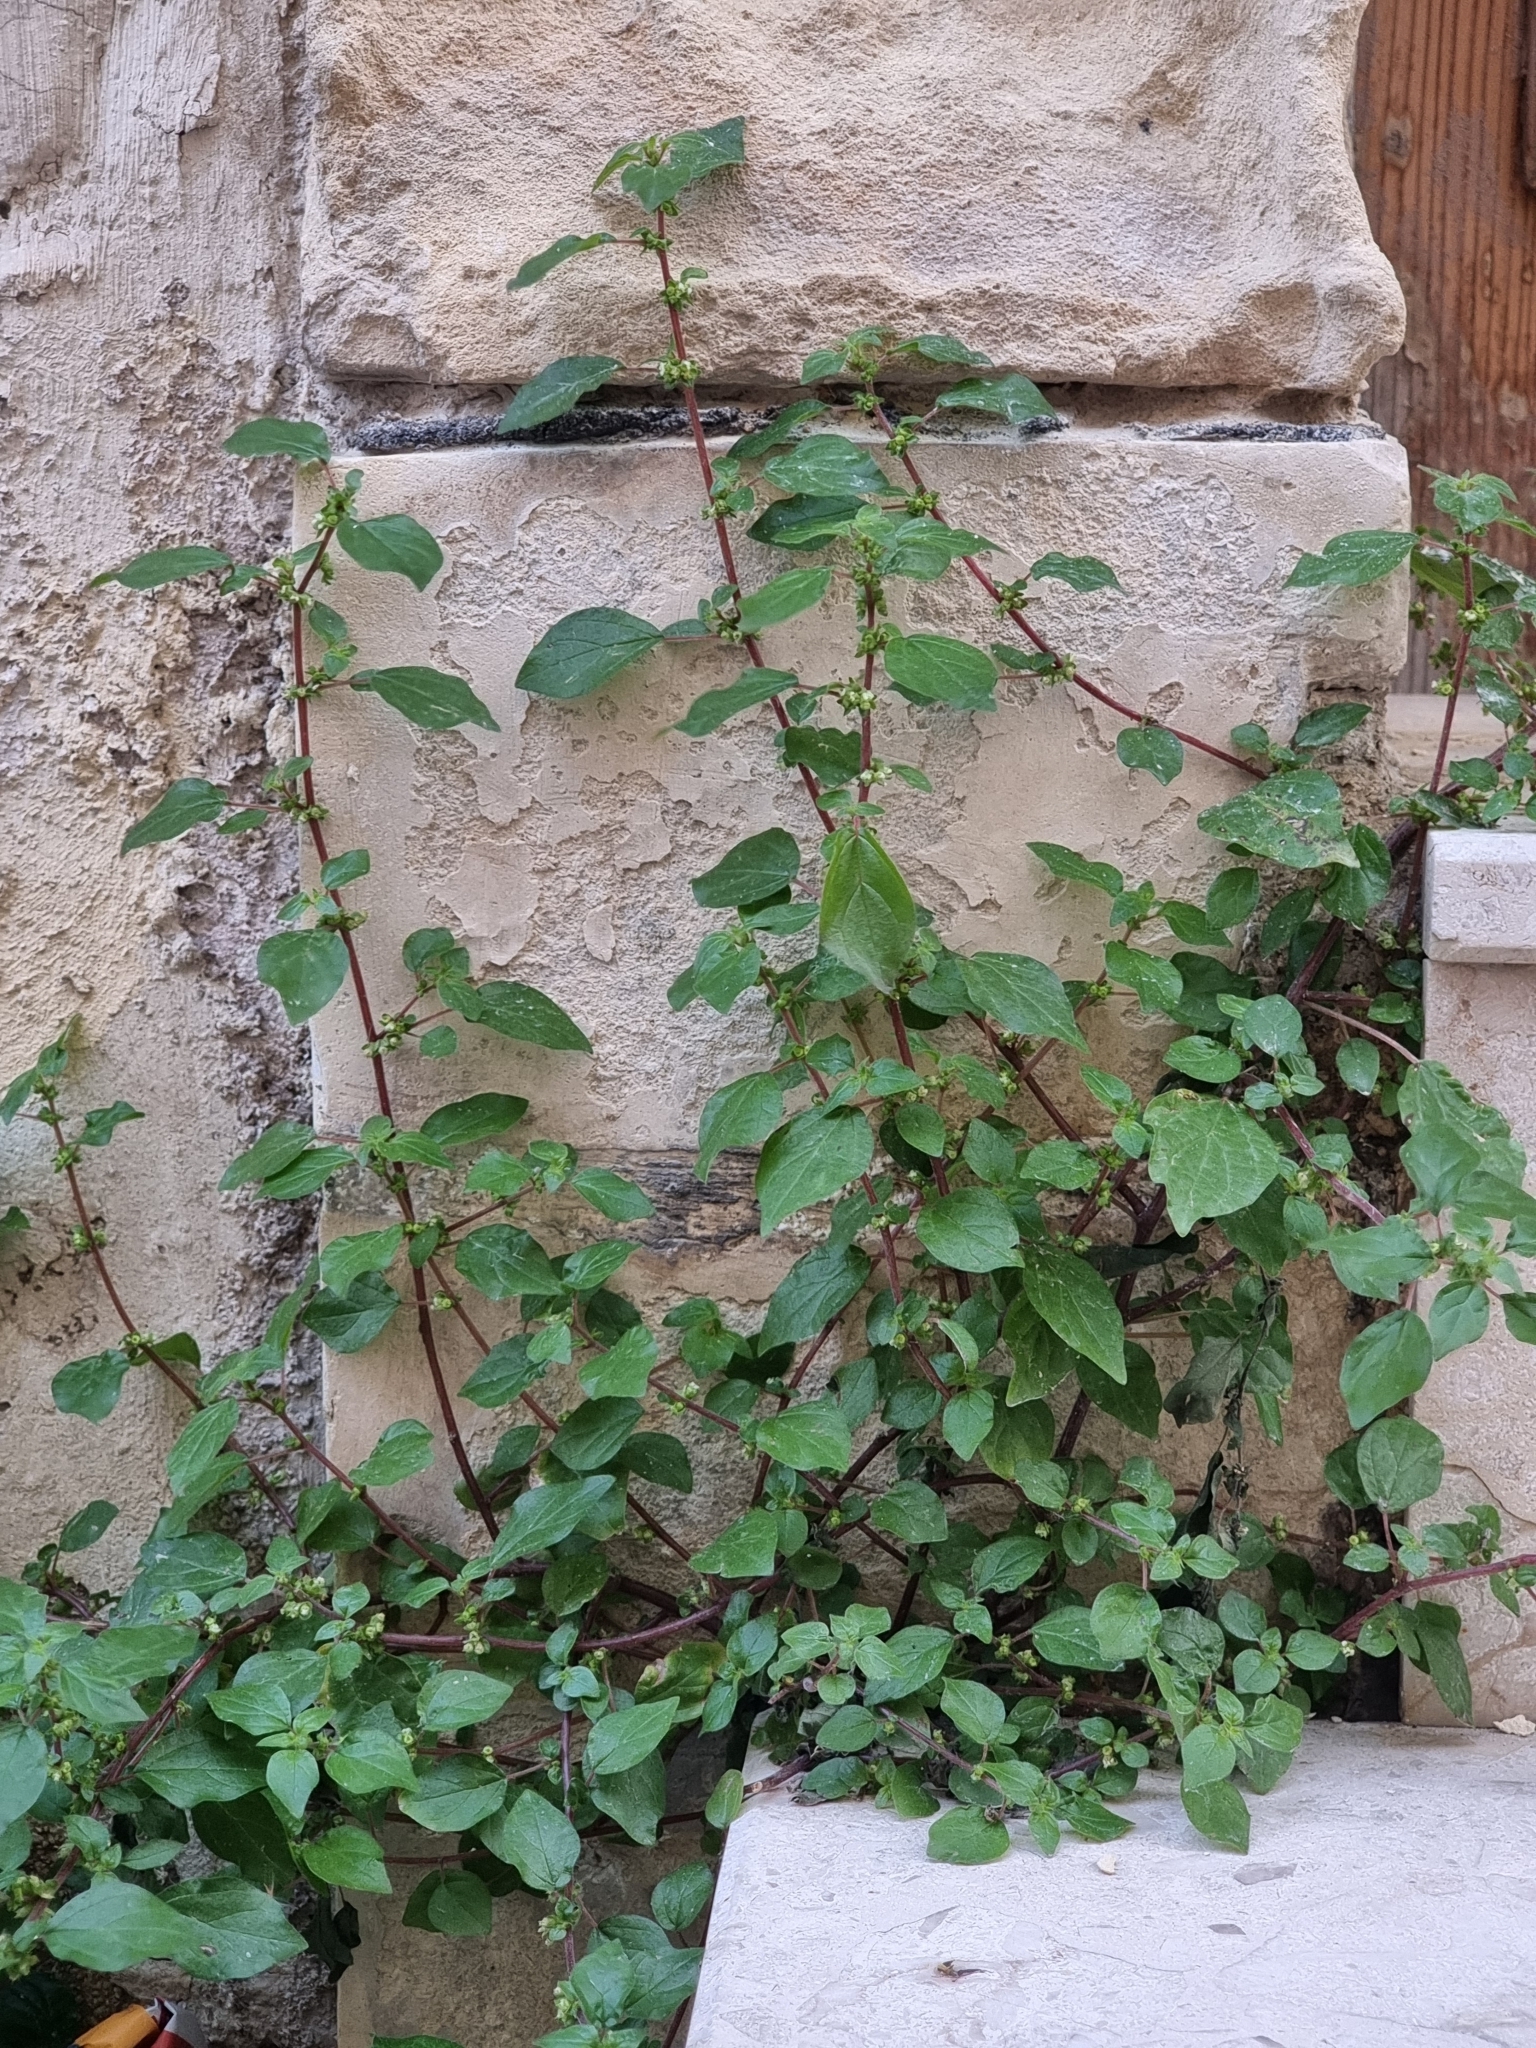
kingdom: Plantae
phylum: Tracheophyta
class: Magnoliopsida
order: Rosales
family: Urticaceae
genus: Parietaria
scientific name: Parietaria judaica
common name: Pellitory-of-the-wall
